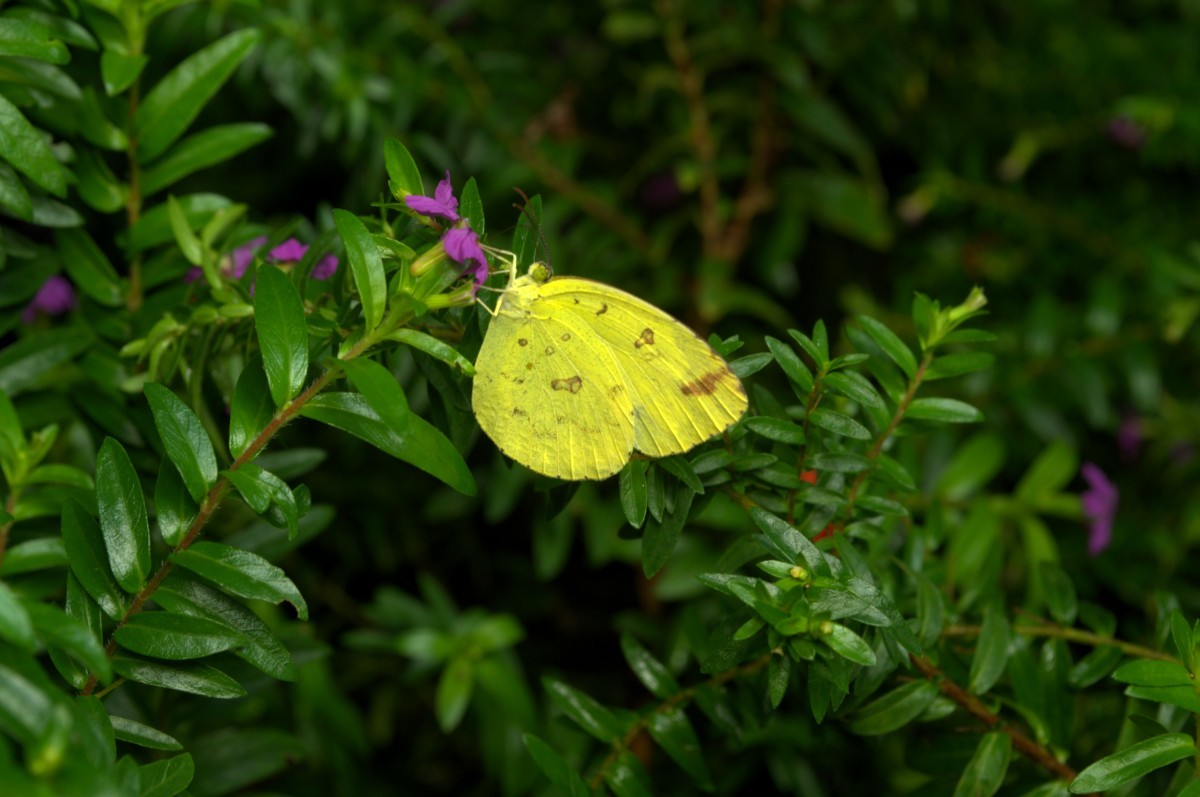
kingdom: Animalia
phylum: Arthropoda
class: Insecta
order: Lepidoptera
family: Pieridae
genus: Eurema
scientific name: Eurema hecabe
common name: Pale grass yellow
